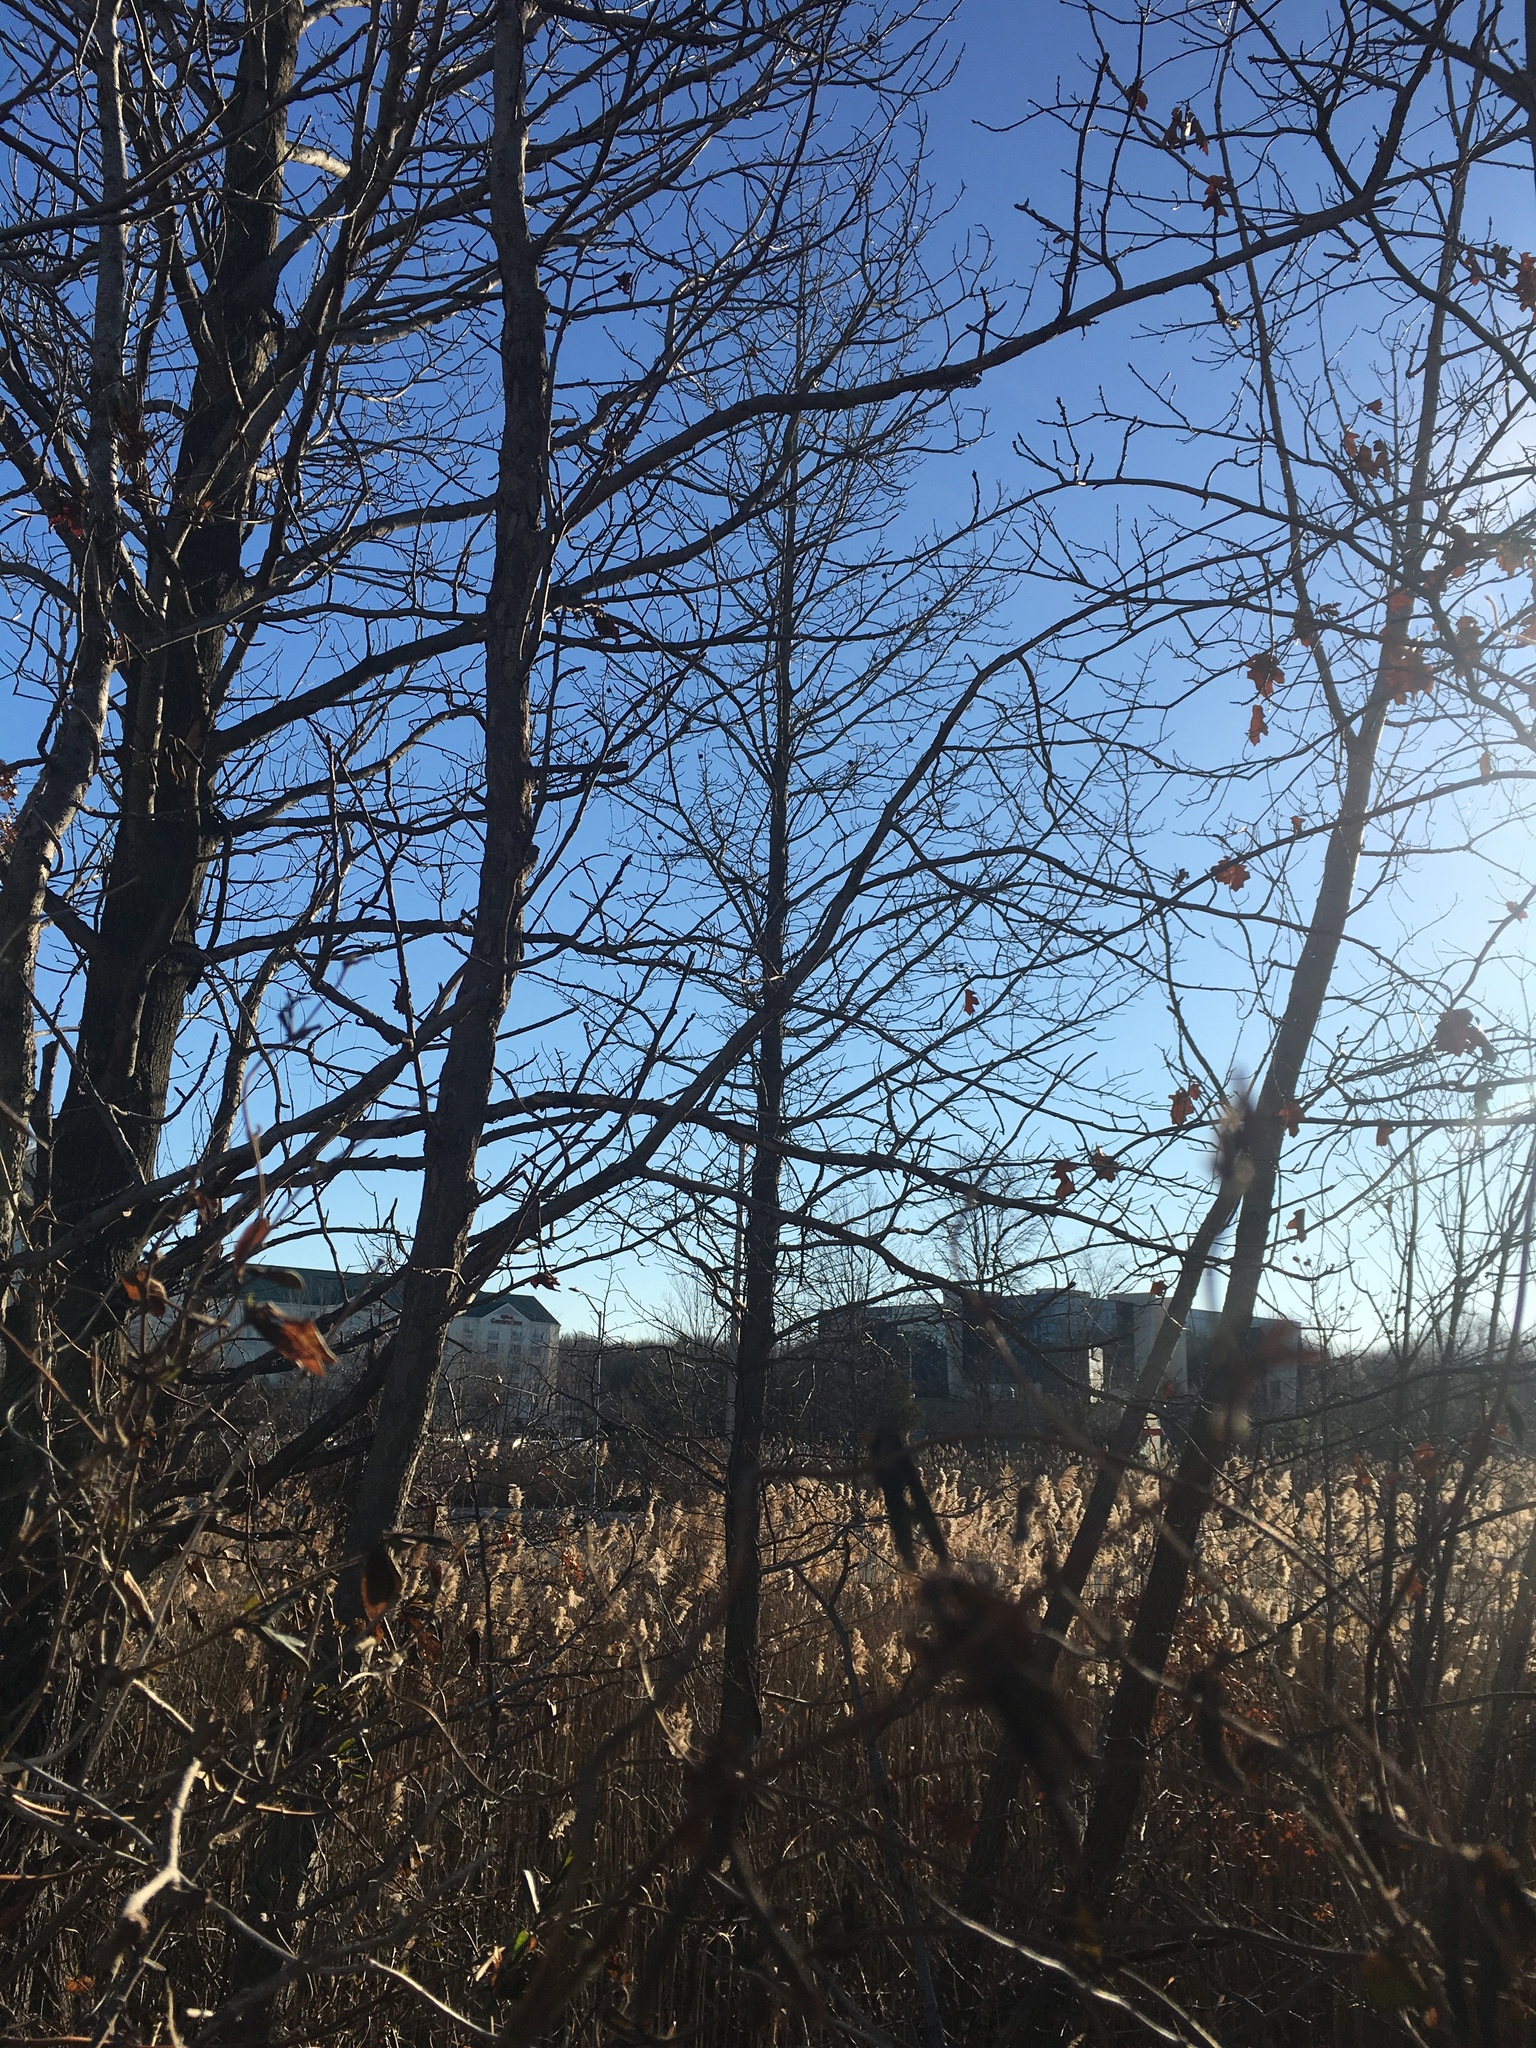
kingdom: Plantae
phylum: Tracheophyta
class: Magnoliopsida
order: Saxifragales
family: Altingiaceae
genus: Liquidambar
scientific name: Liquidambar styraciflua
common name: Sweet gum
